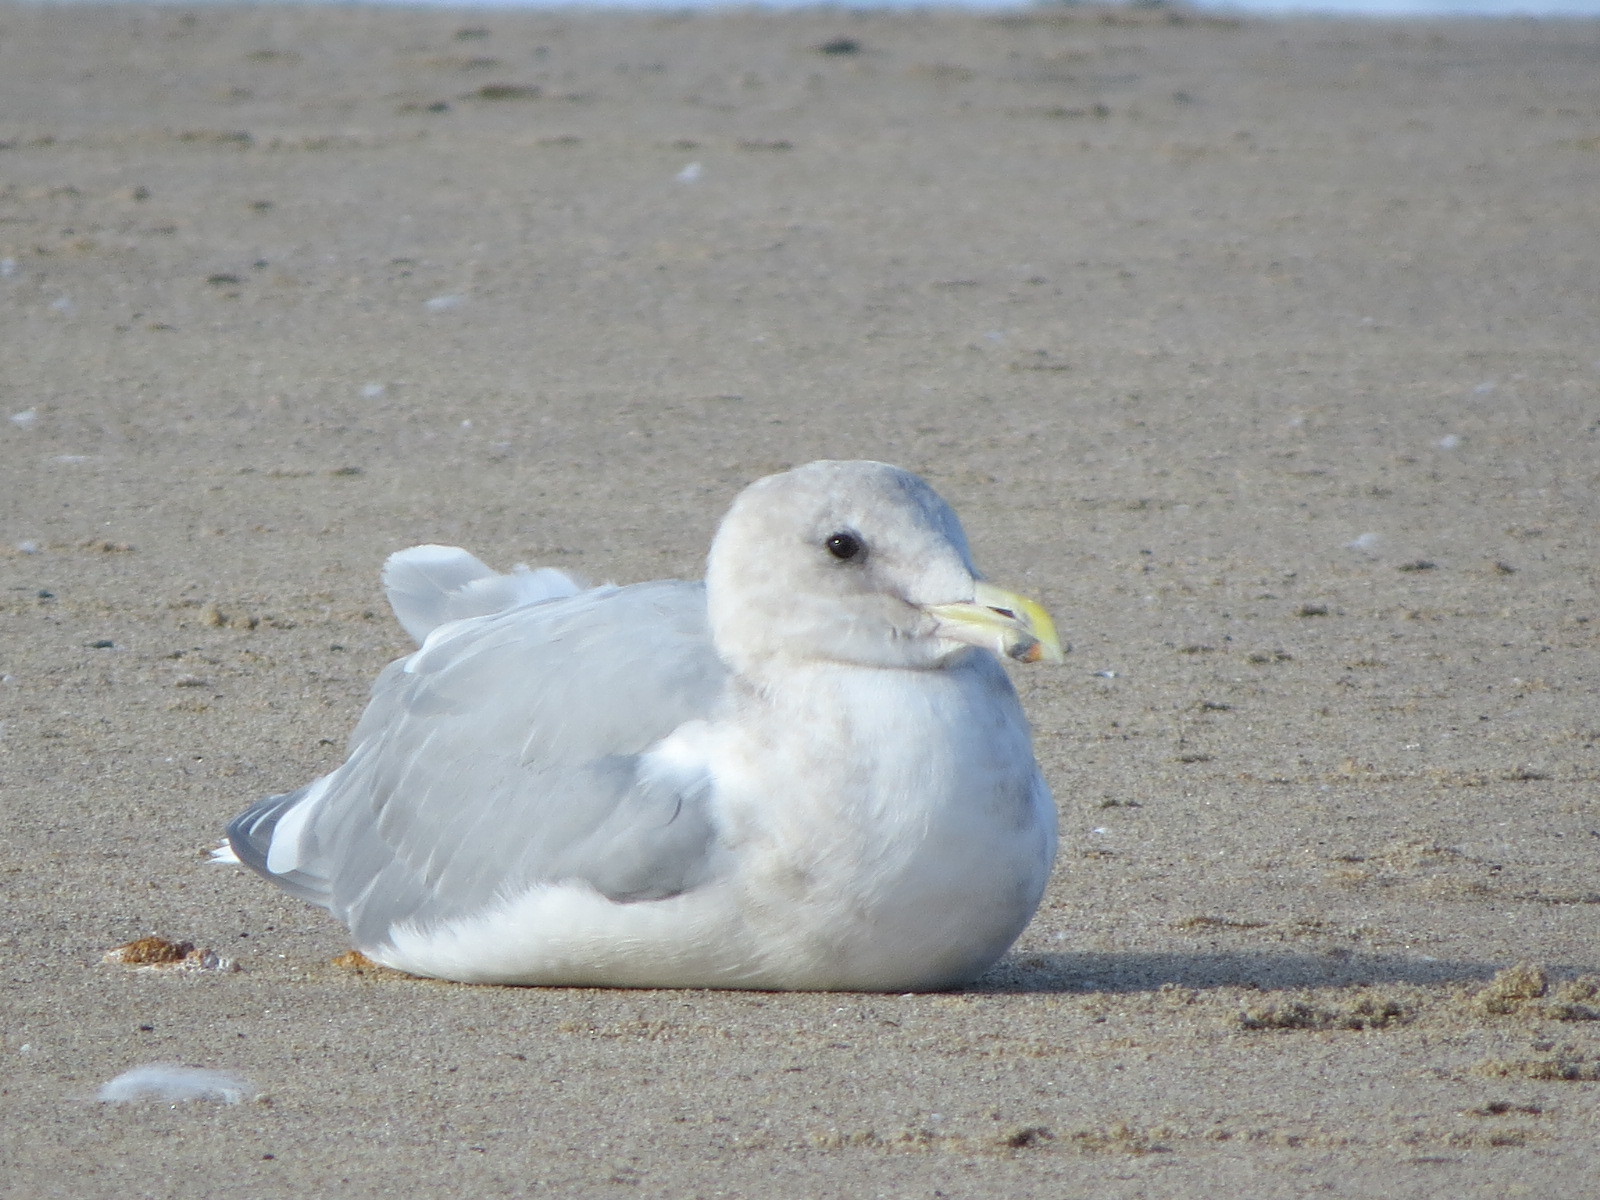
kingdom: Animalia
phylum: Chordata
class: Aves
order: Charadriiformes
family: Laridae
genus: Larus
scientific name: Larus glaucescens
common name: Glaucous-winged gull
